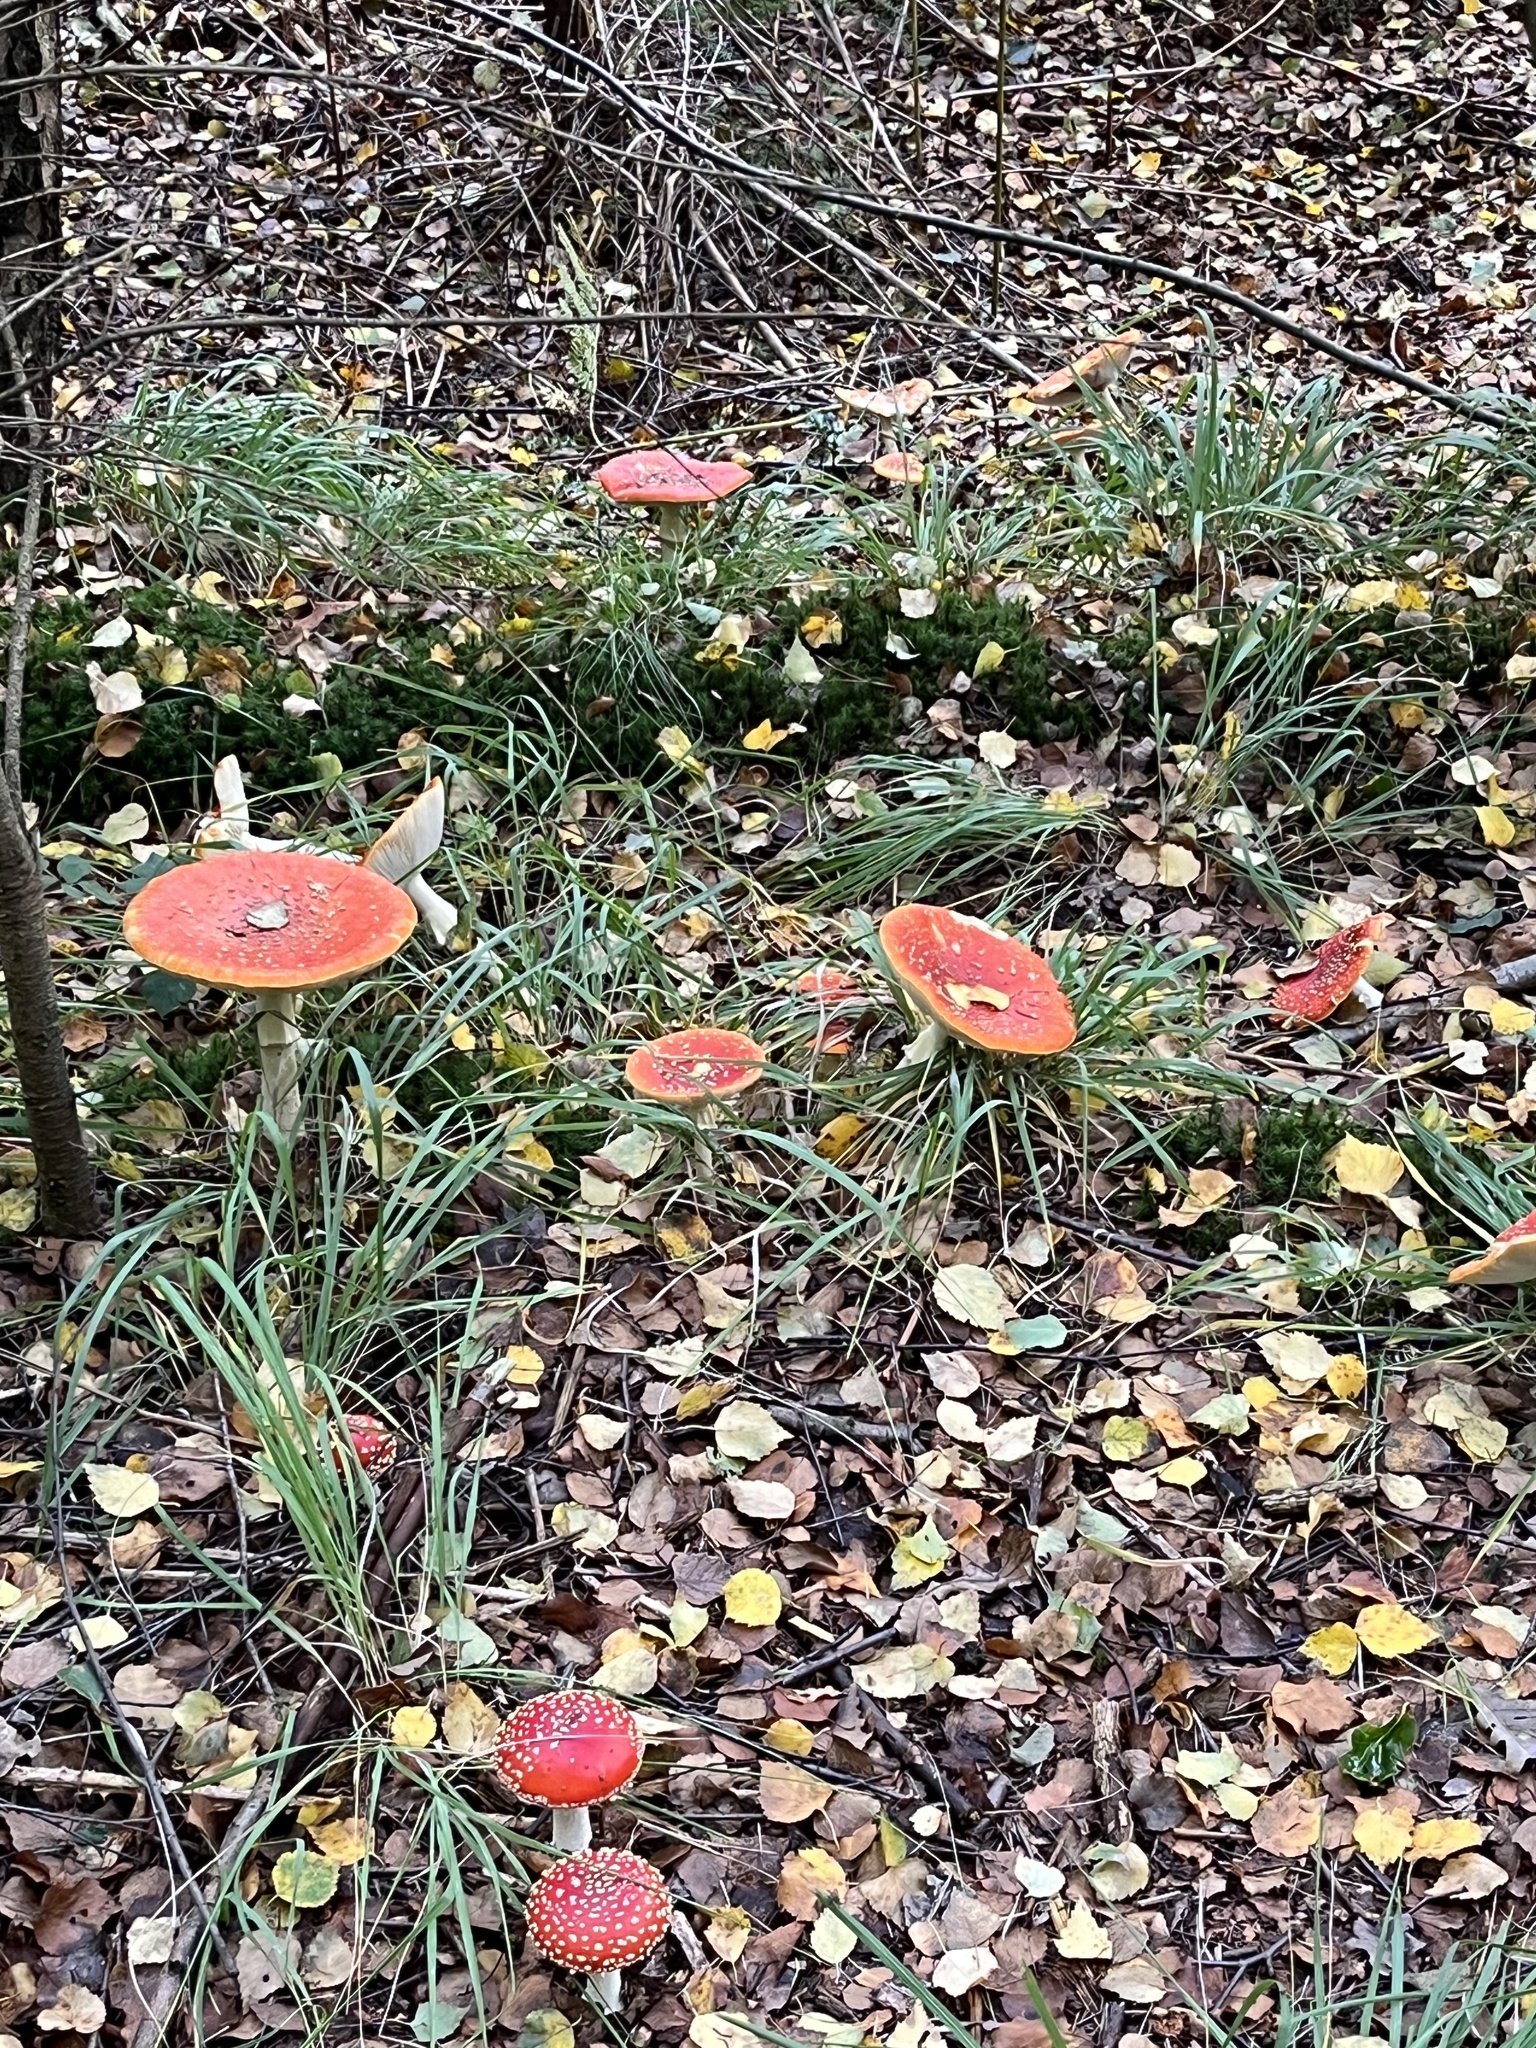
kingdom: Fungi
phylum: Basidiomycota
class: Agaricomycetes
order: Agaricales
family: Amanitaceae
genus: Amanita
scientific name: Amanita muscaria
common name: Fly agaric
